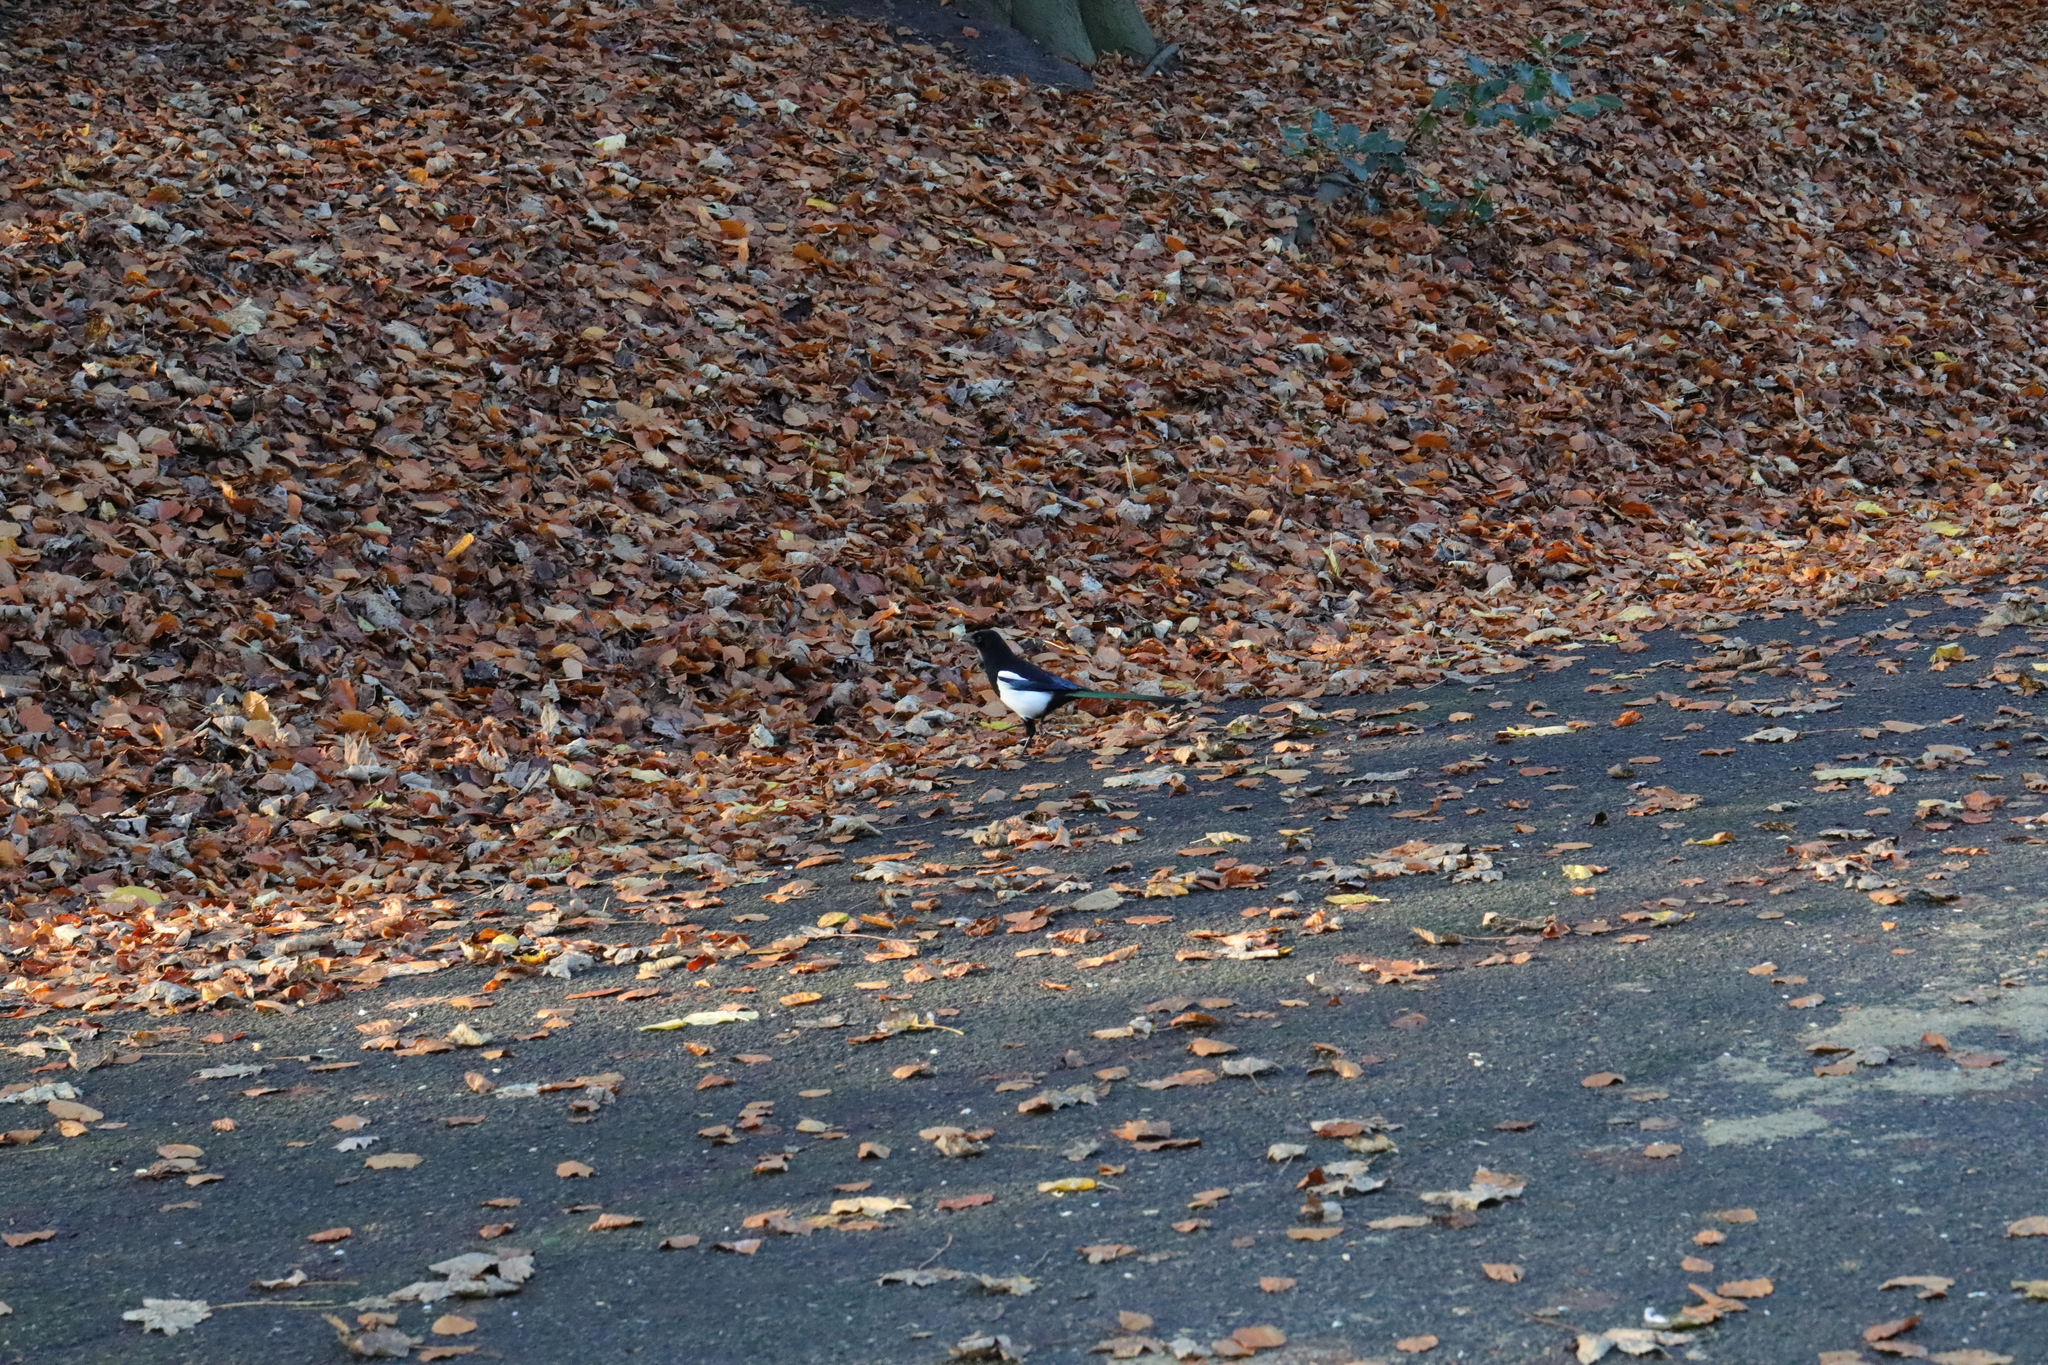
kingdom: Animalia
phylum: Chordata
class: Aves
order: Passeriformes
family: Corvidae
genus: Pica
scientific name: Pica pica
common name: Eurasian magpie
